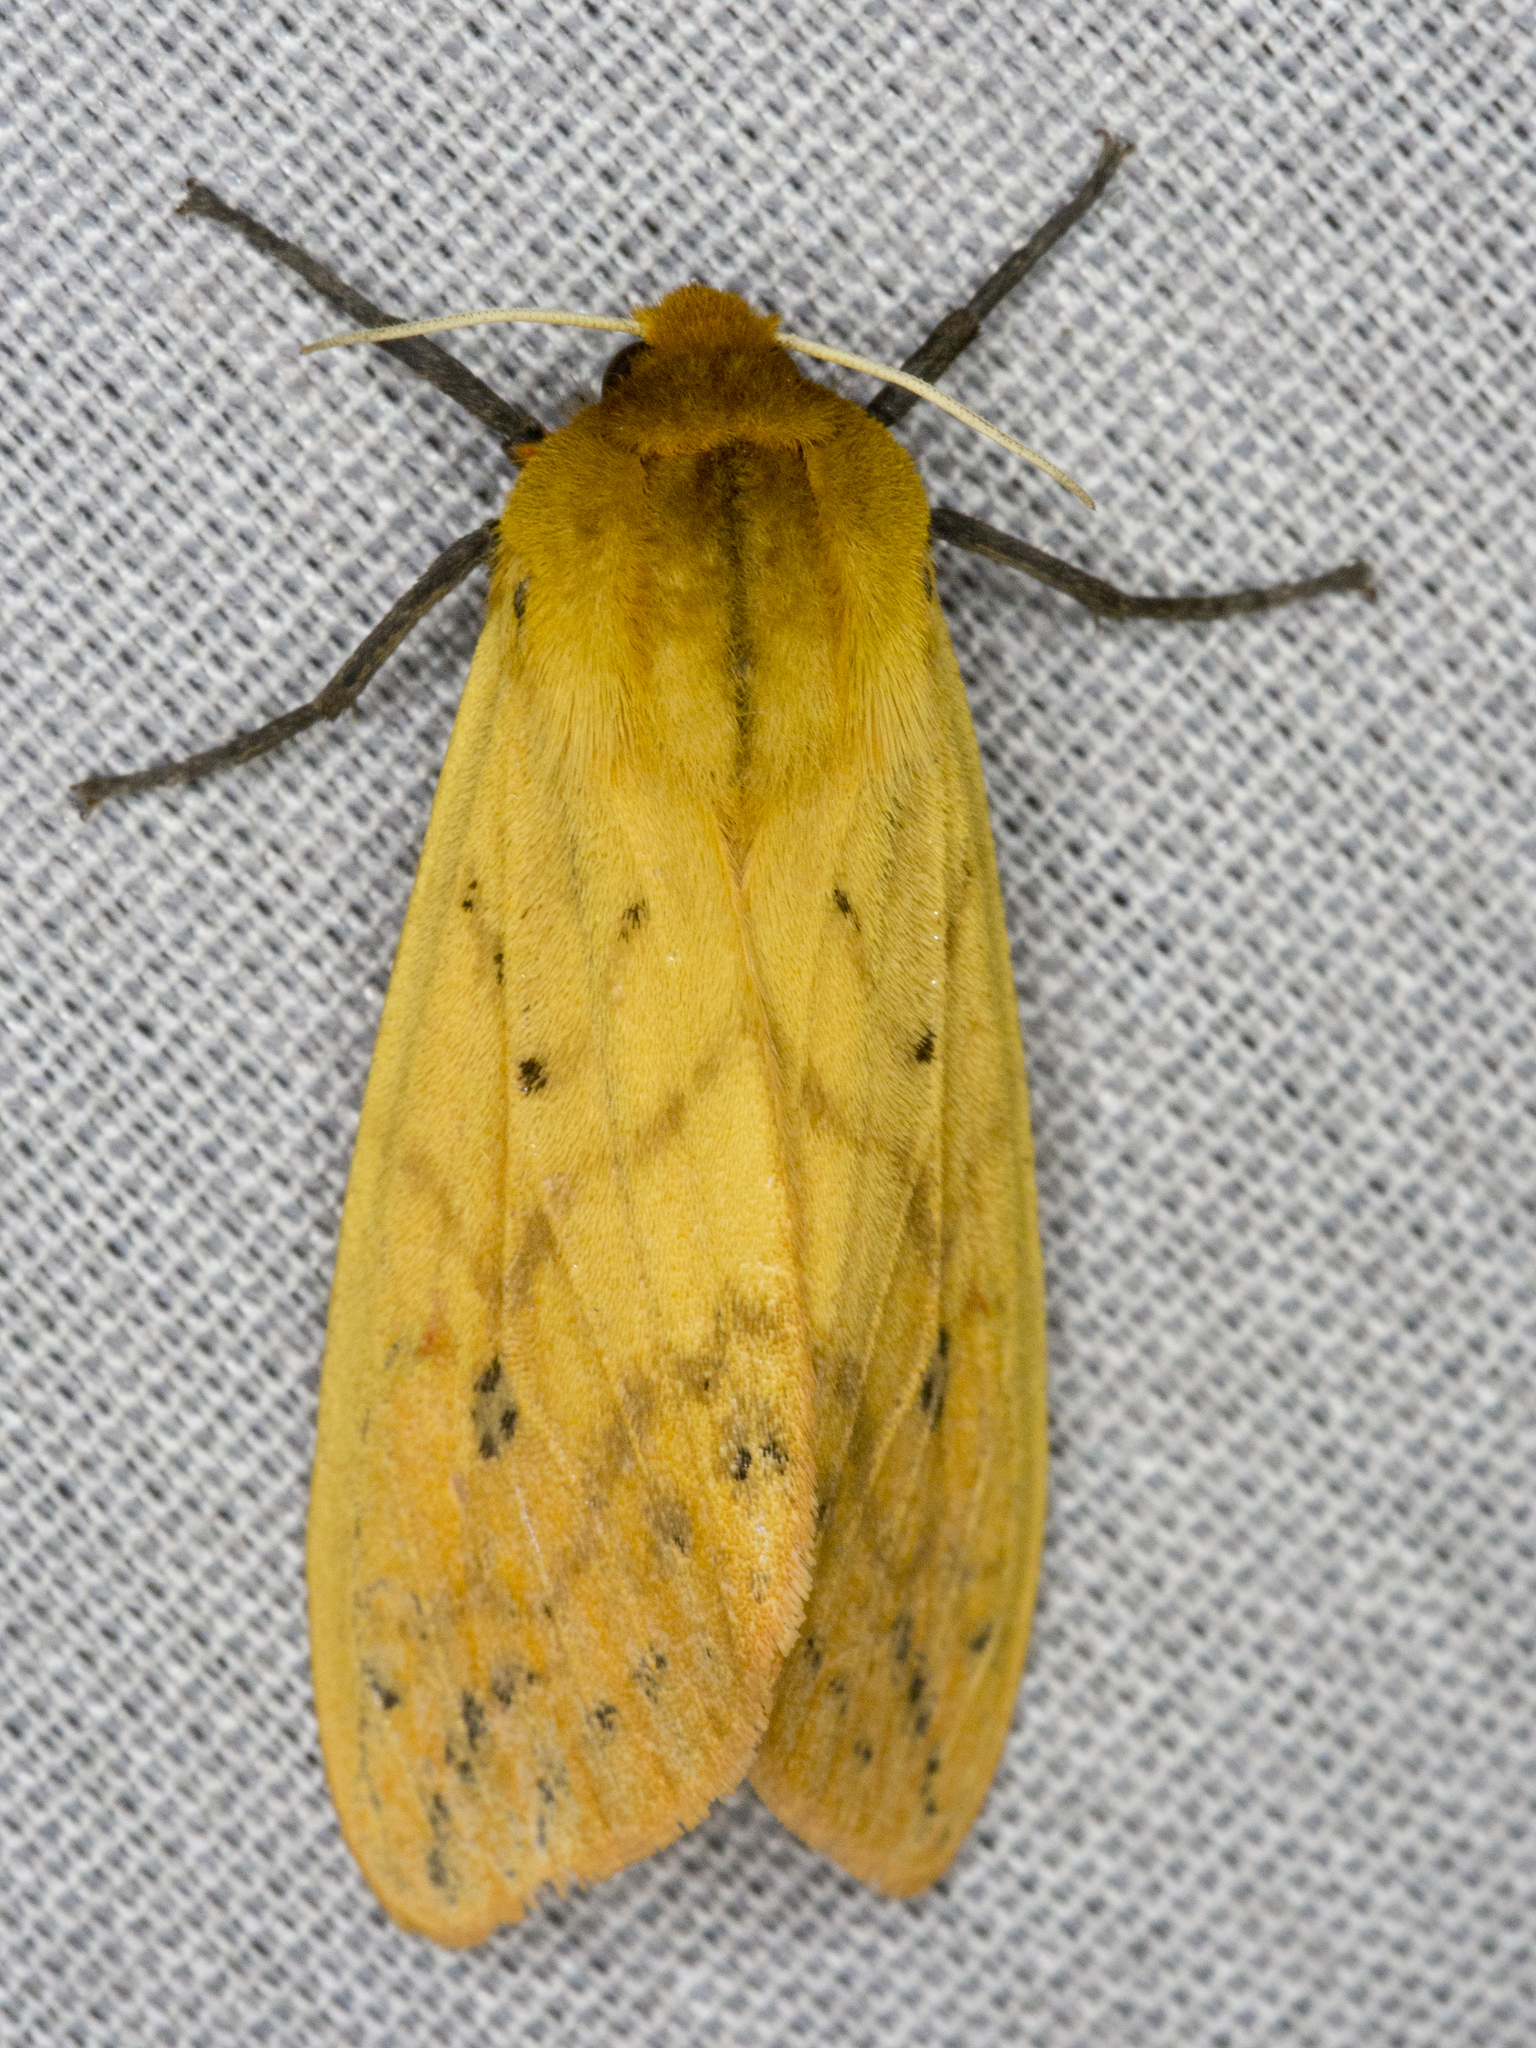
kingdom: Animalia
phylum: Arthropoda
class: Insecta
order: Lepidoptera
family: Erebidae
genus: Pyrrharctia
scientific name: Pyrrharctia isabella
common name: Isabella tiger moth
